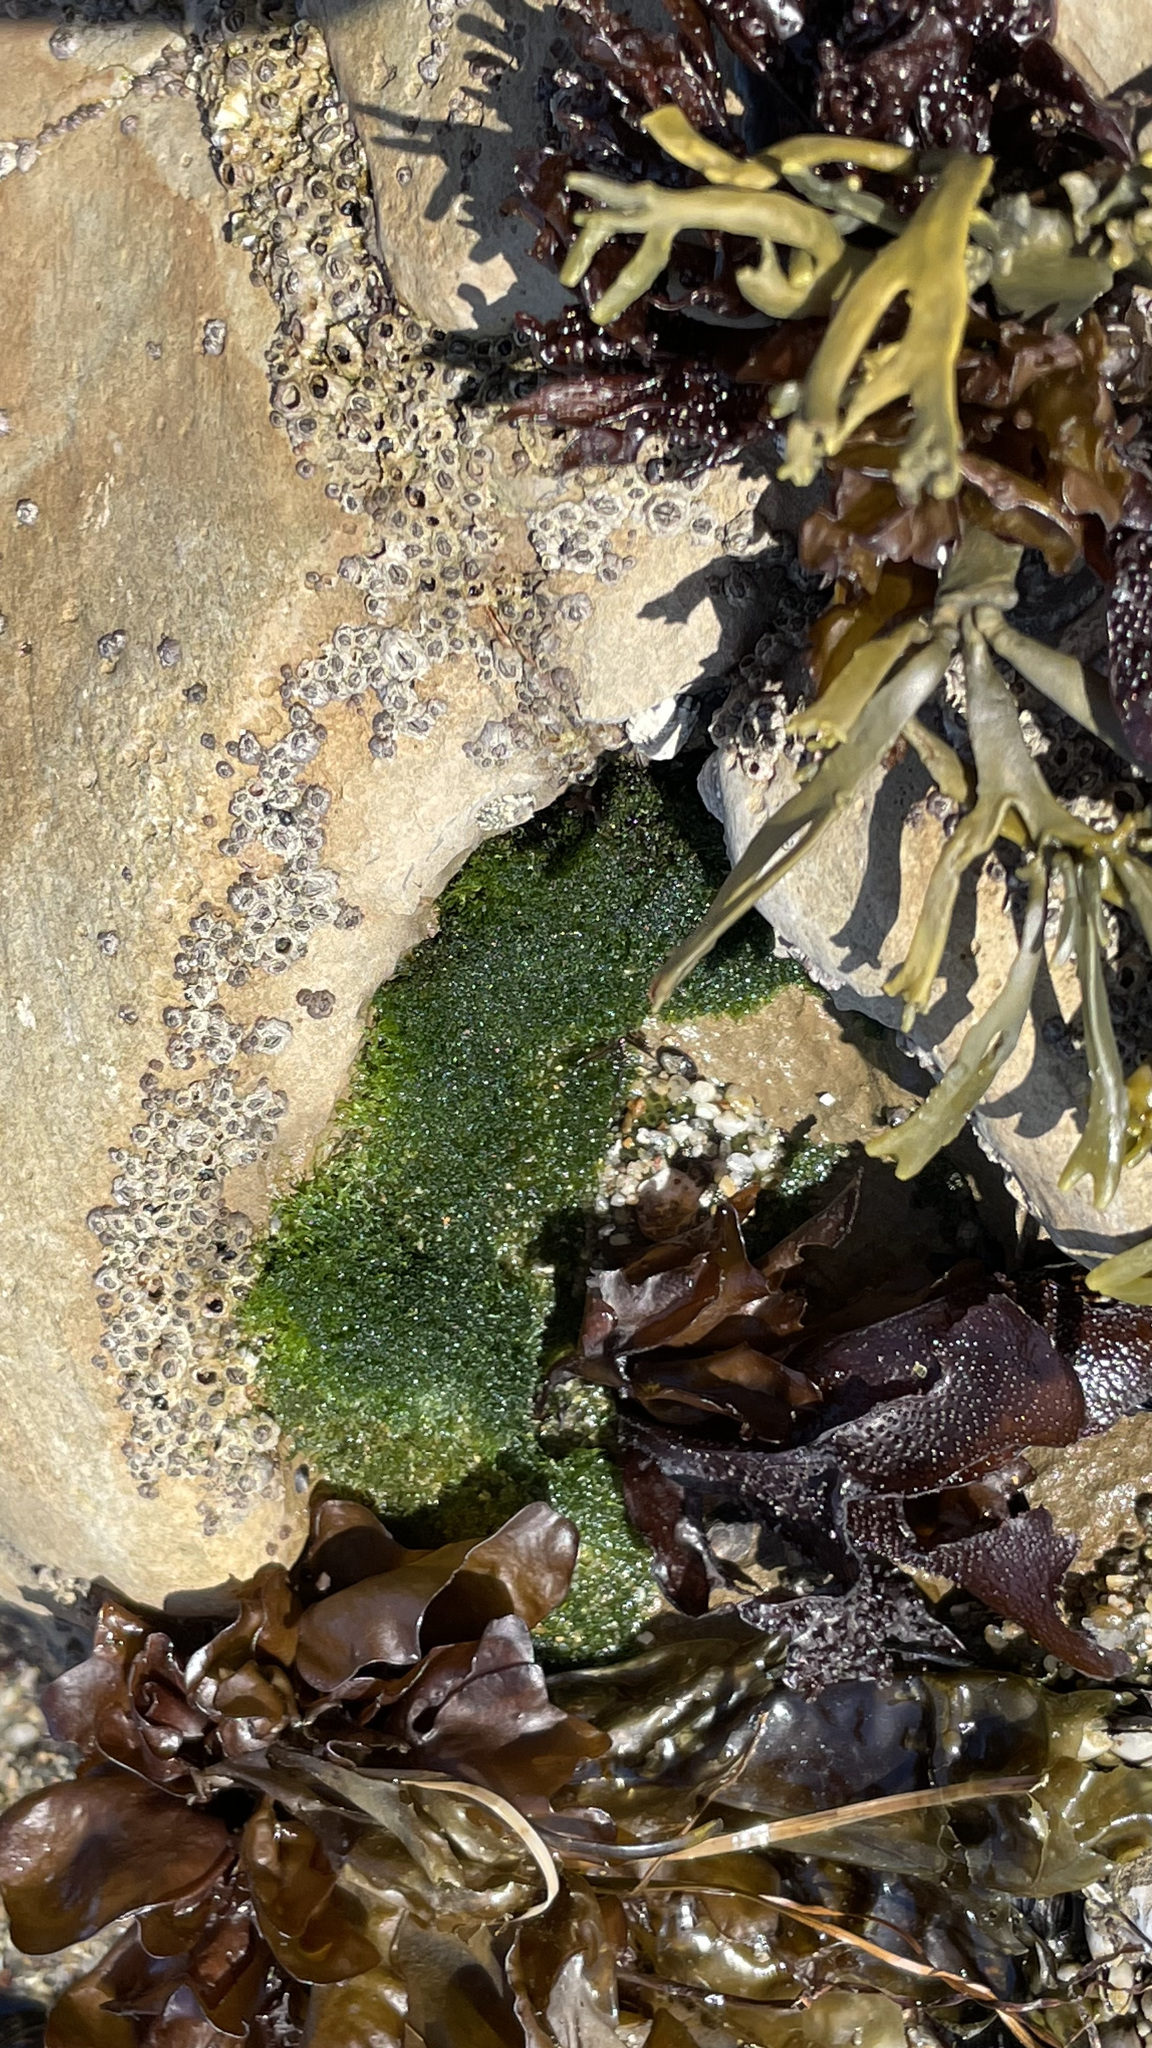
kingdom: Plantae
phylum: Chlorophyta
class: Ulvophyceae
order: Cladophorales
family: Cladophoraceae
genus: Cladophora
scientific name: Cladophora columbiana
